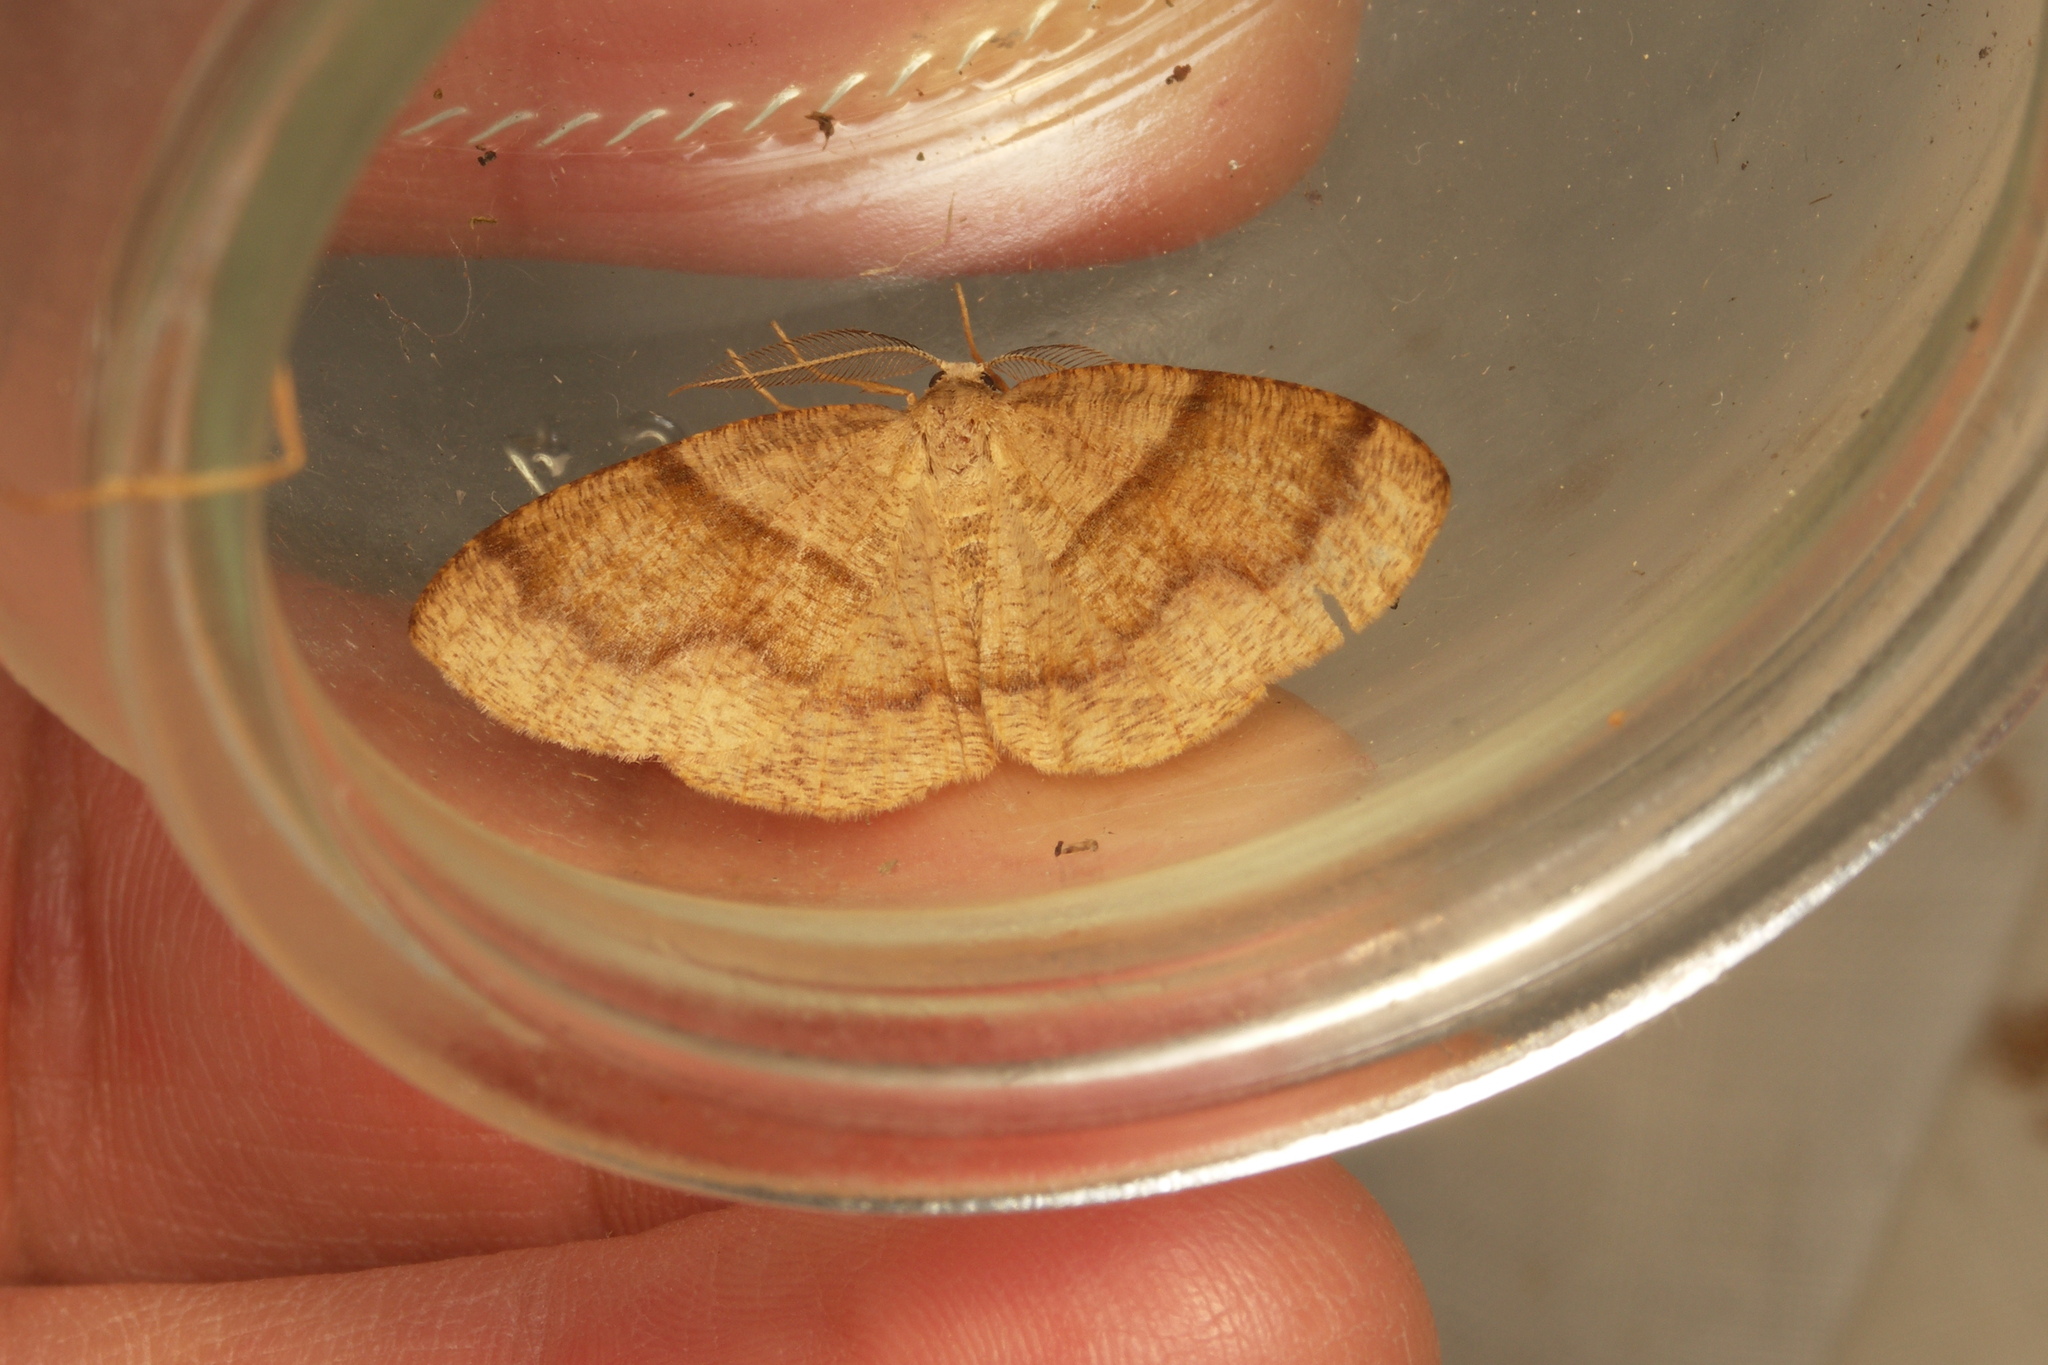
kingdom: Animalia
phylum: Arthropoda
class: Insecta
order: Lepidoptera
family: Geometridae
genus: Plagodis
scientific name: Plagodis pulveraria
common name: Barred umber
